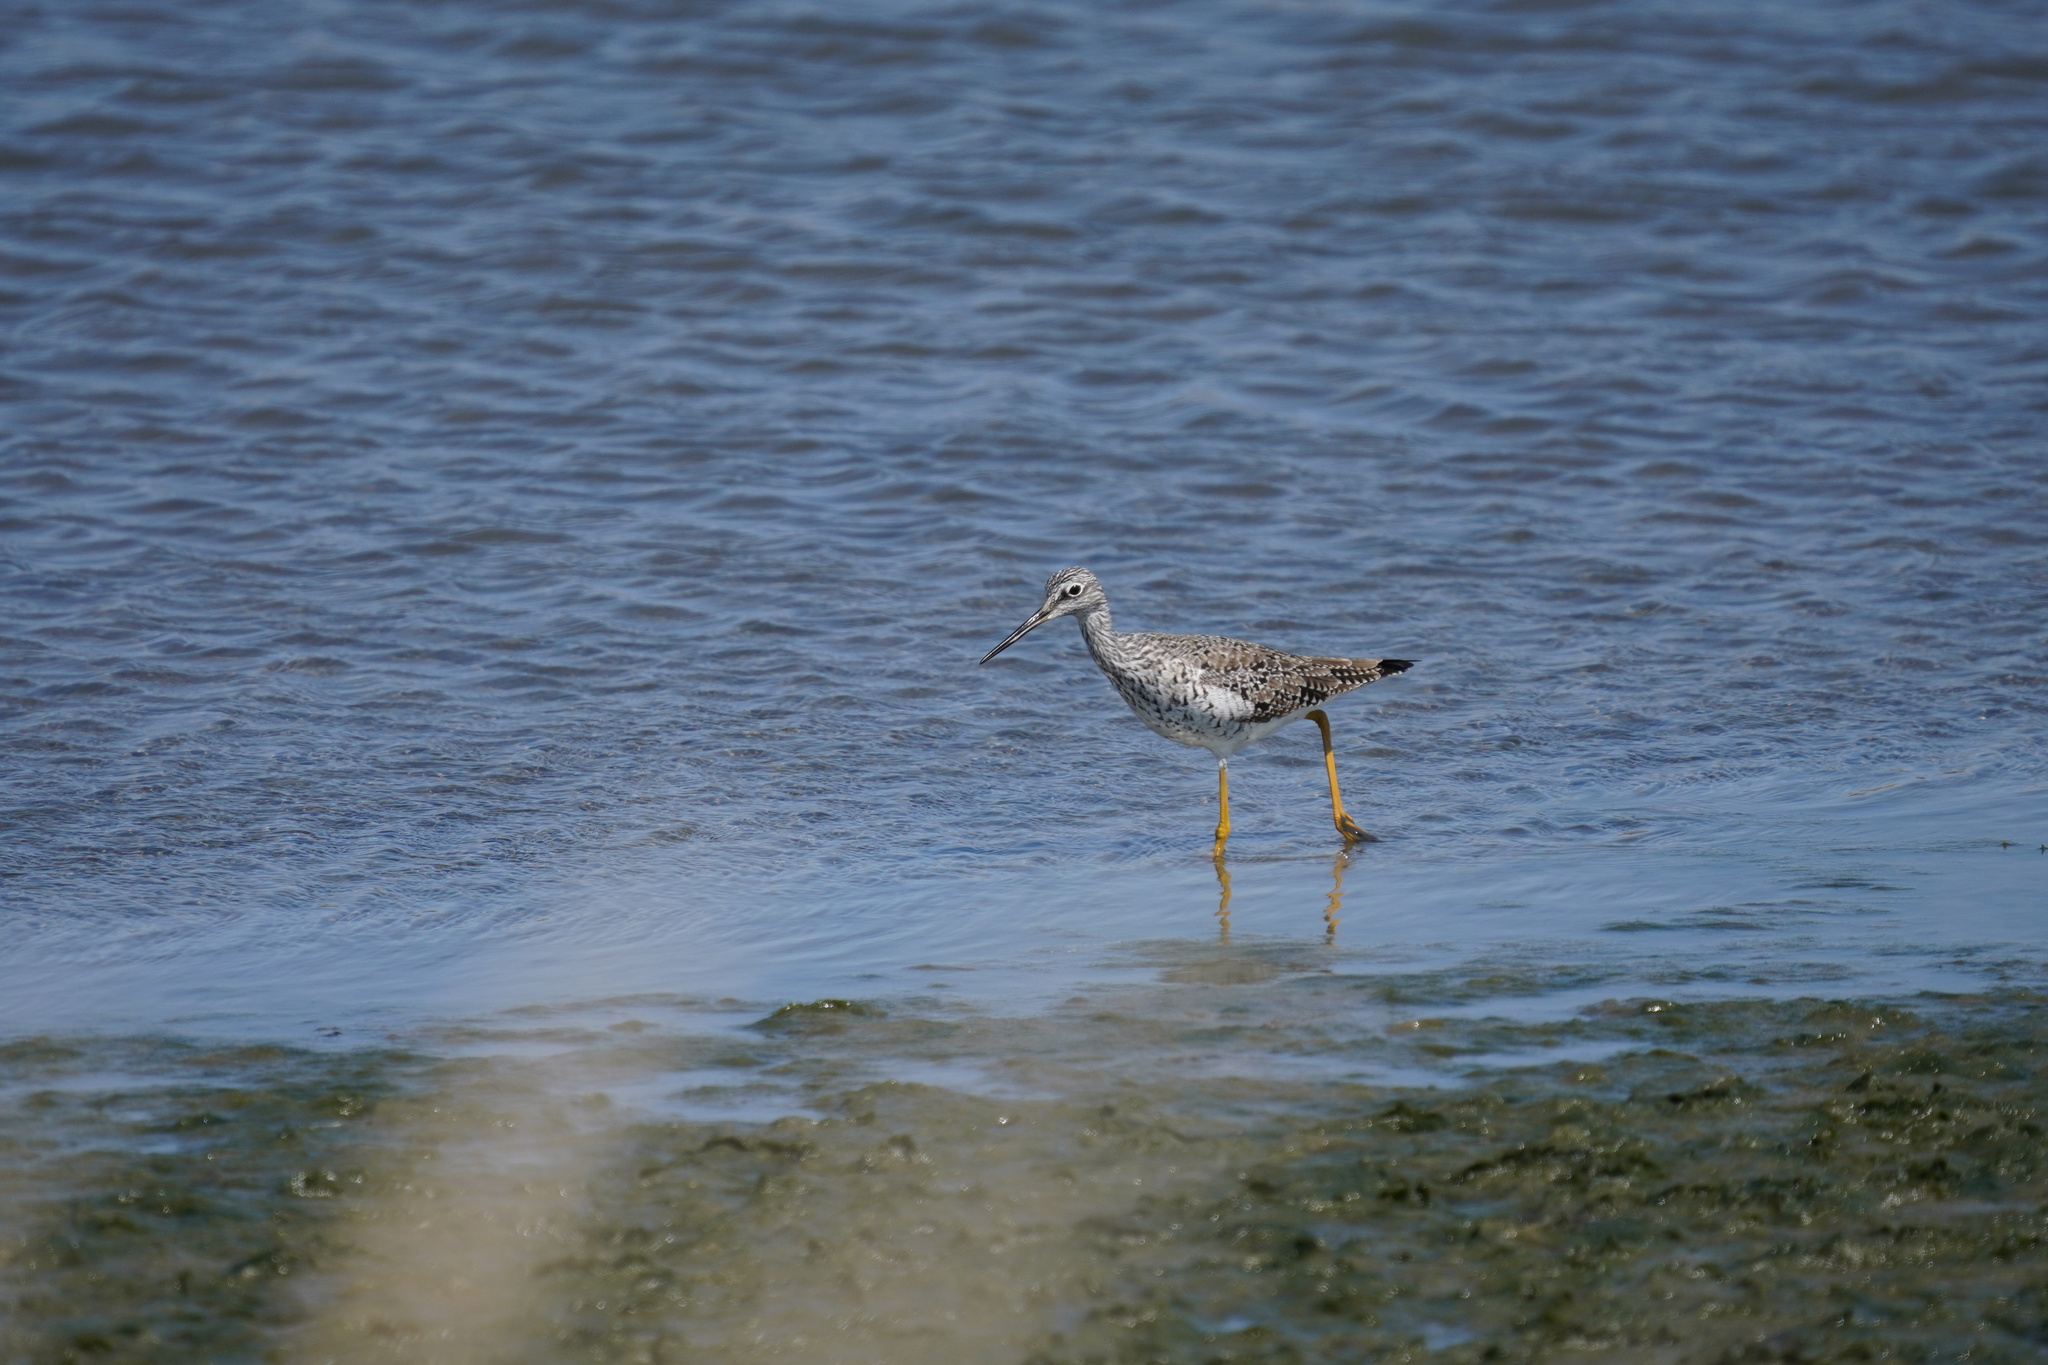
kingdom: Animalia
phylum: Chordata
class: Aves
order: Charadriiformes
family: Scolopacidae
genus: Tringa
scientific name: Tringa melanoleuca
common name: Greater yellowlegs
